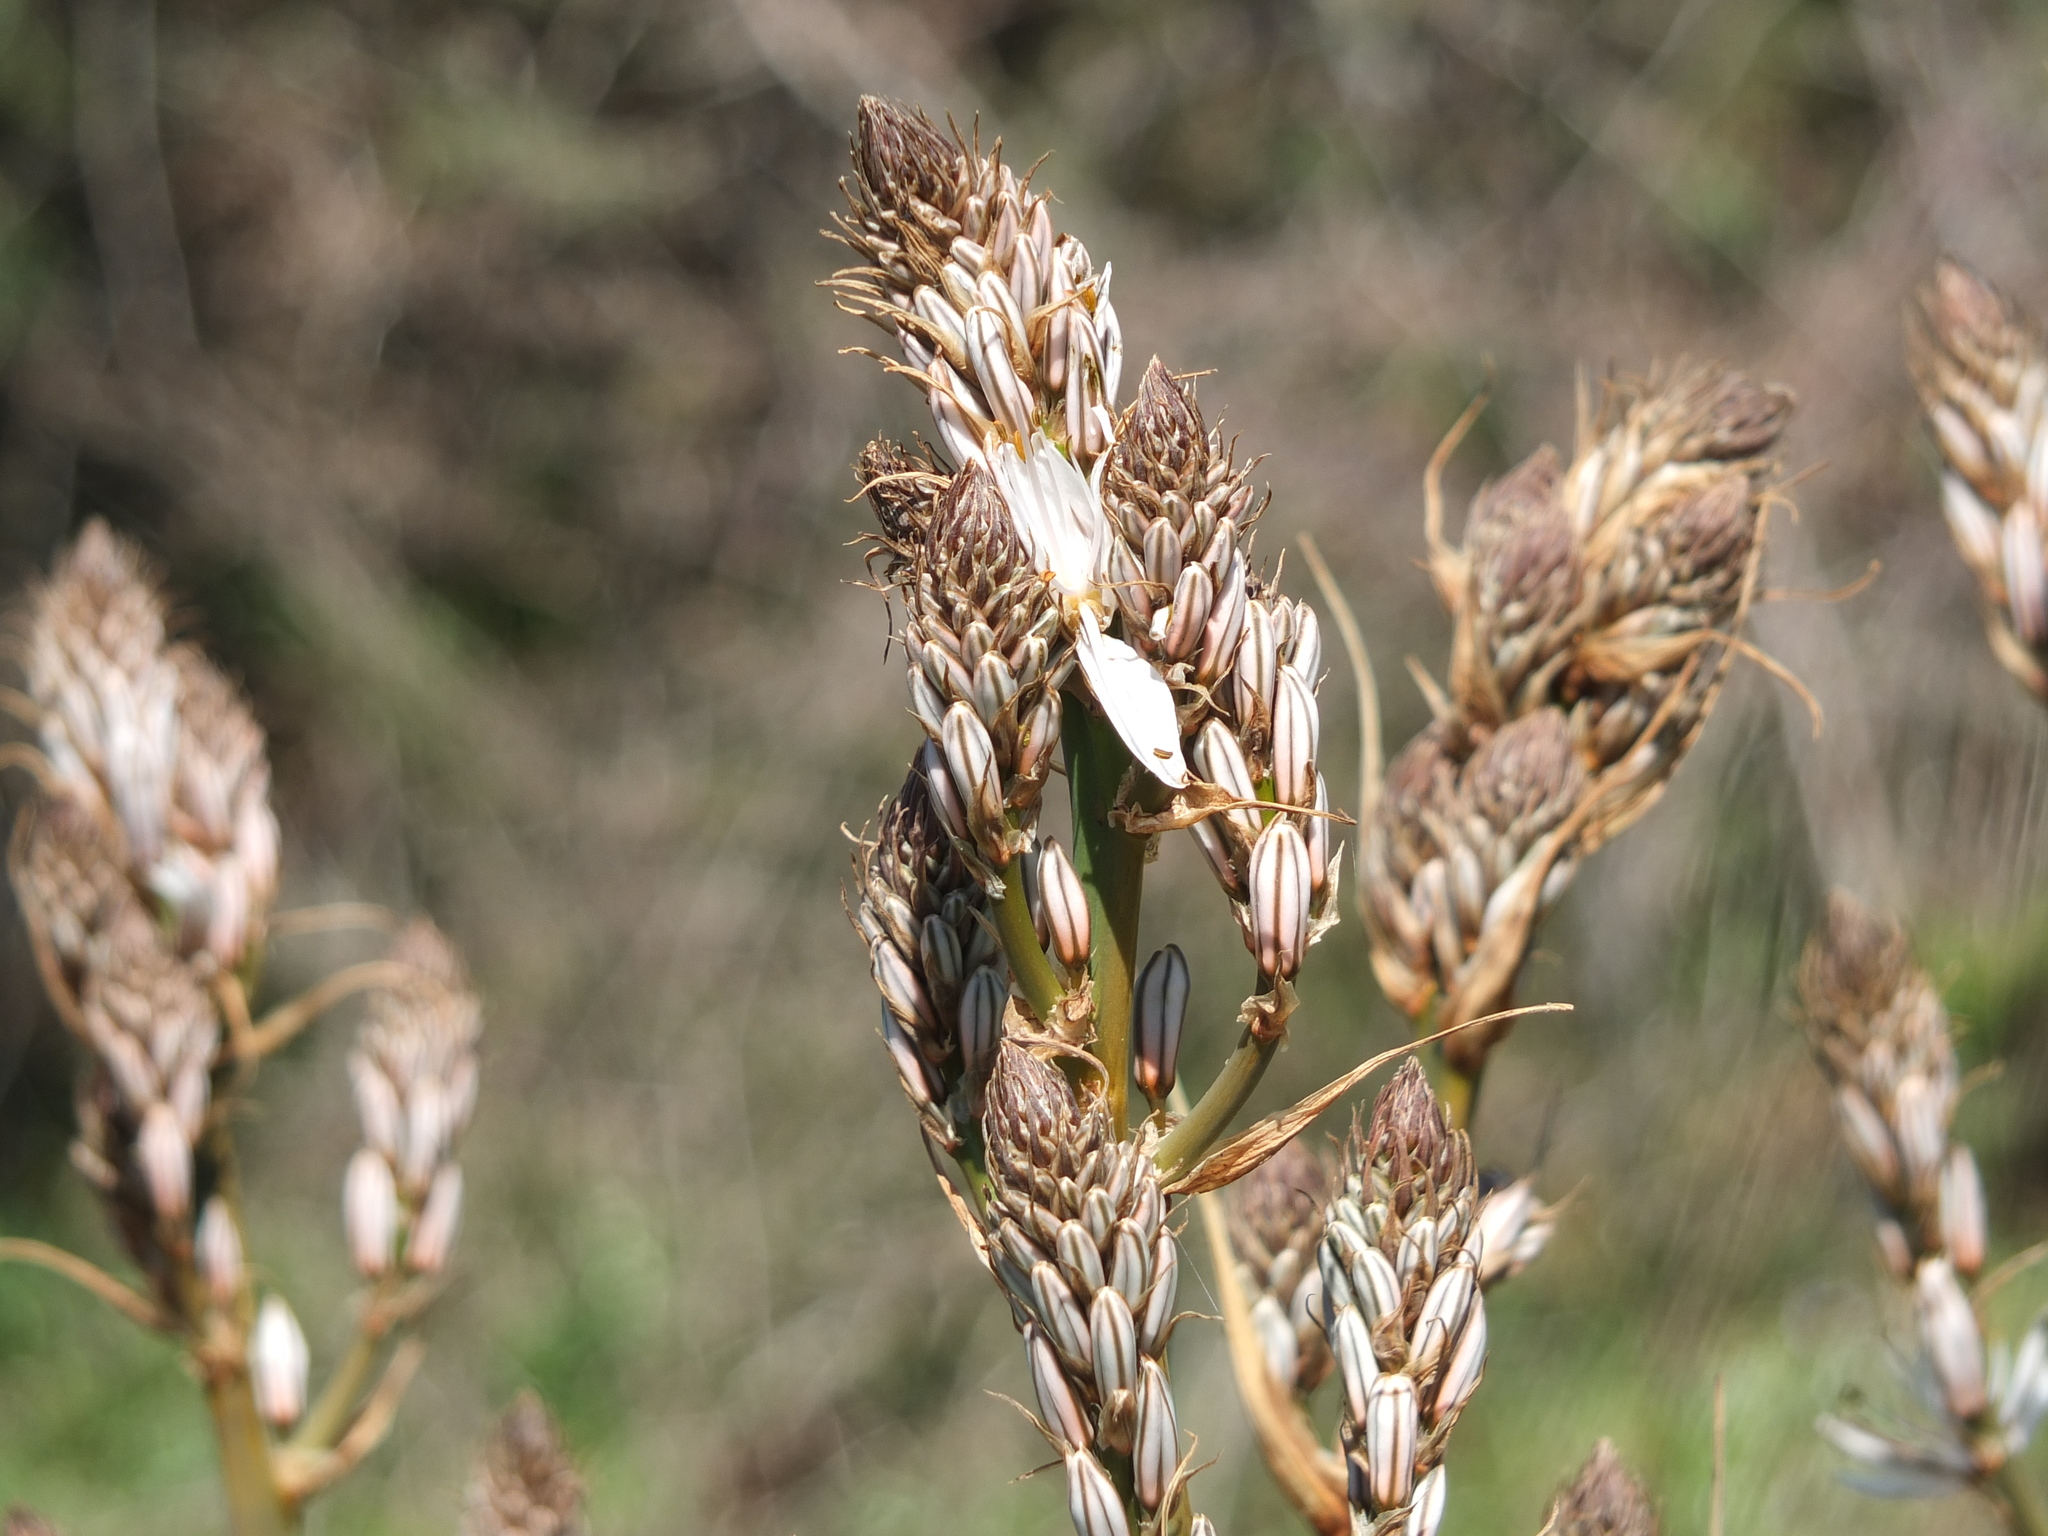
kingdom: Plantae
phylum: Tracheophyta
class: Liliopsida
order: Asparagales
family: Asphodelaceae
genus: Asphodelus
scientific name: Asphodelus ramosus
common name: Silverrod
